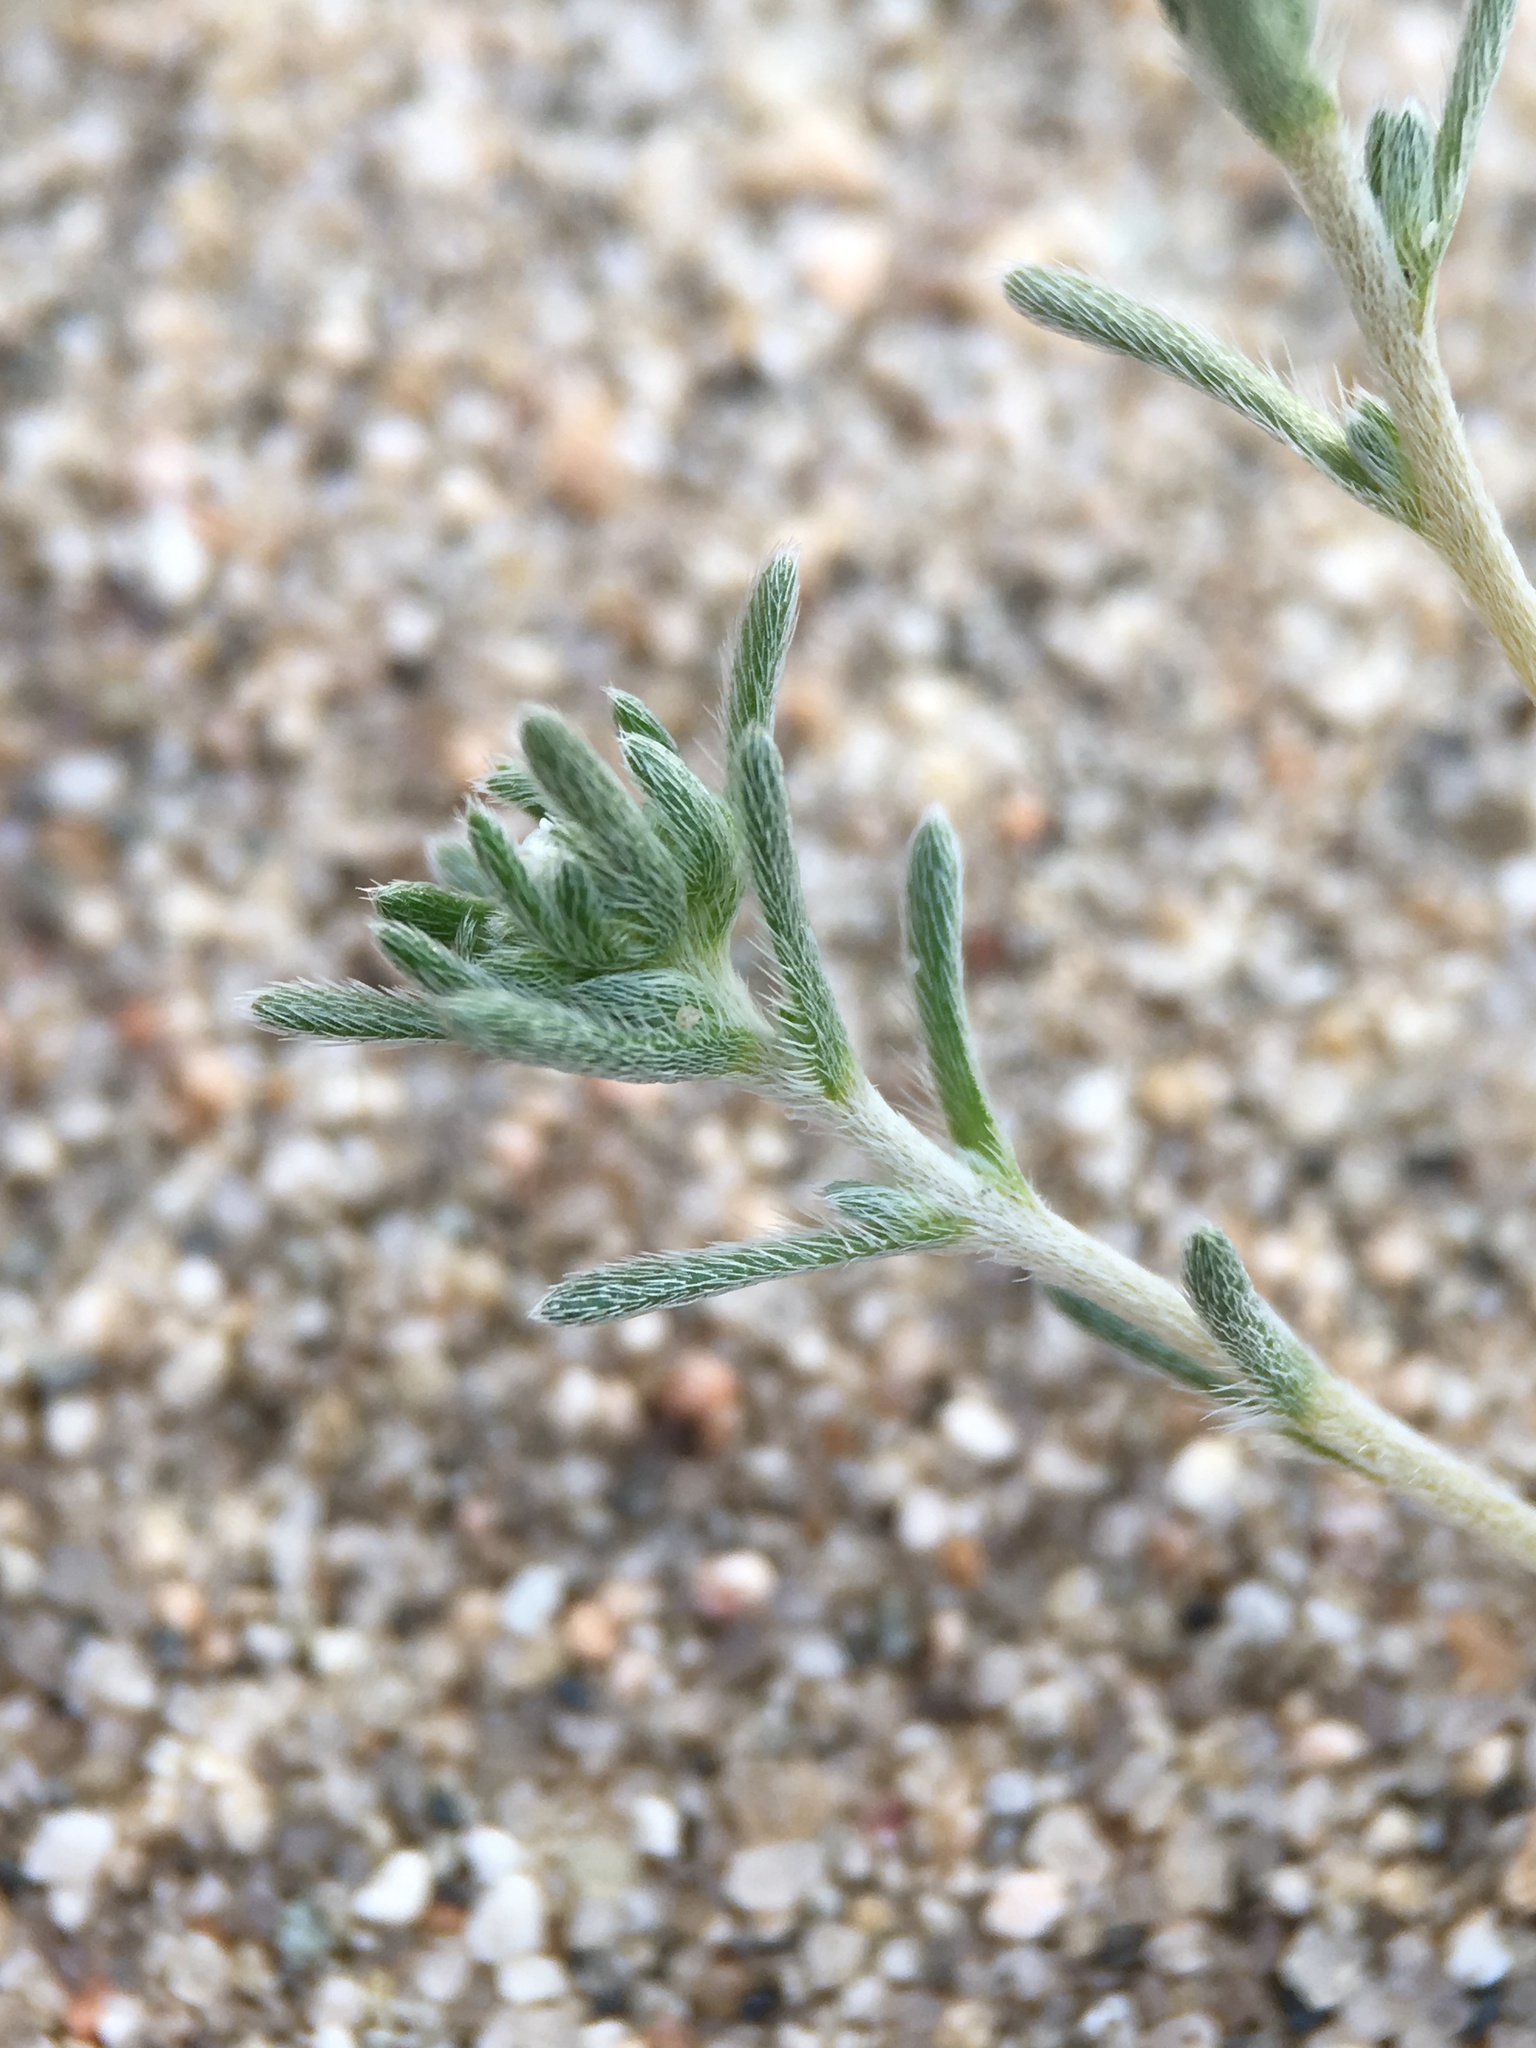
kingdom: Plantae
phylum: Tracheophyta
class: Magnoliopsida
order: Boraginales
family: Boraginaceae
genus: Eremocarya
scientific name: Eremocarya micrantha
